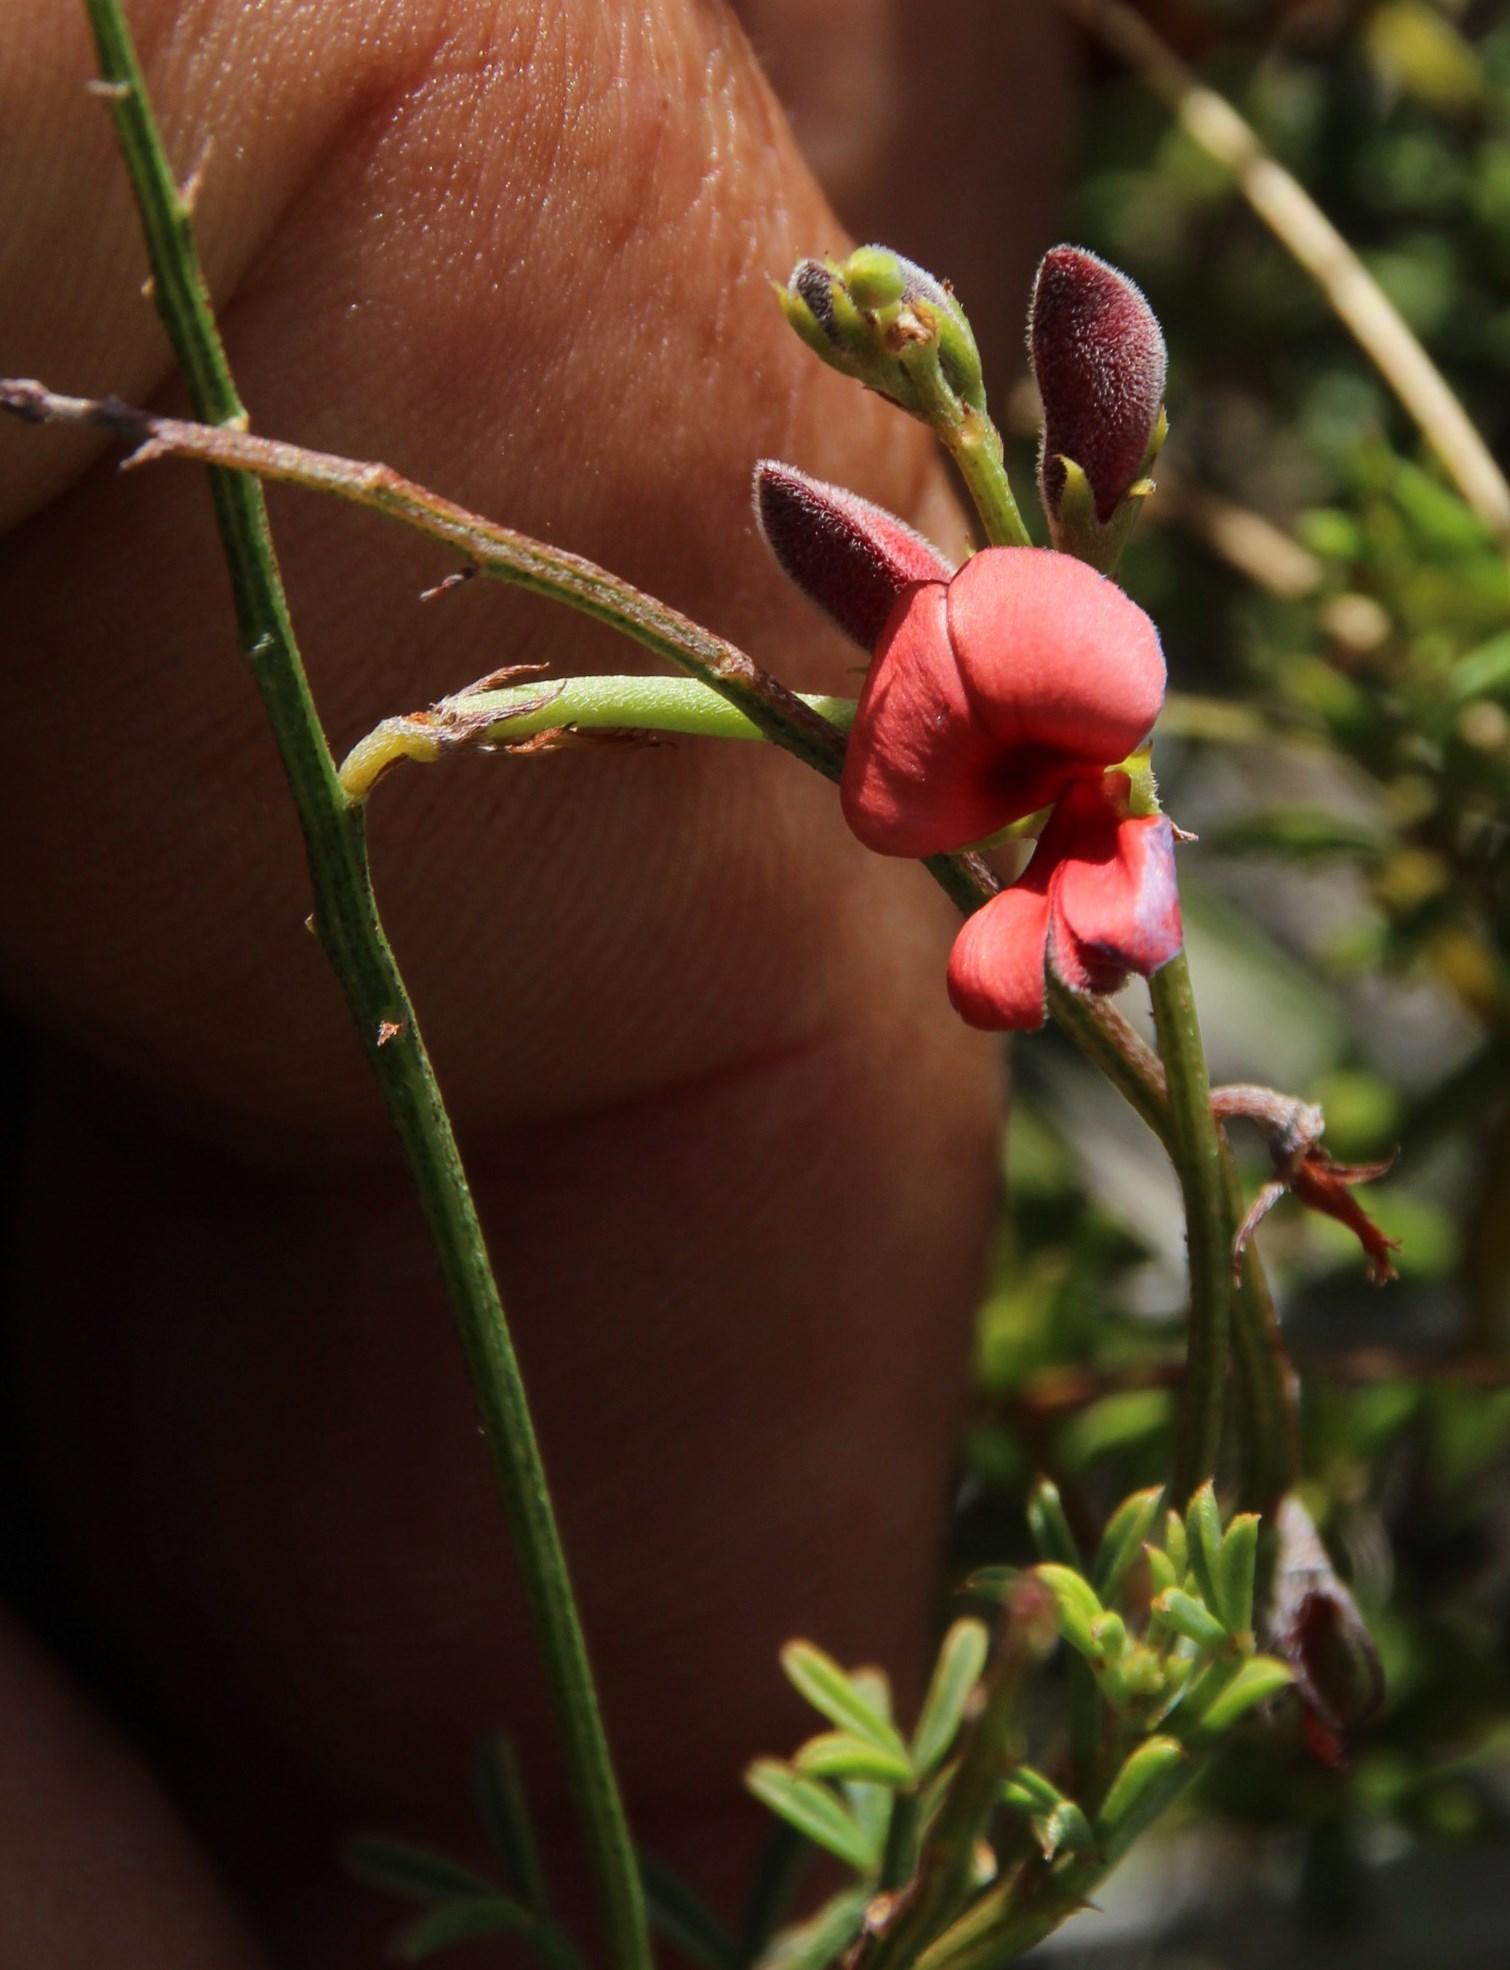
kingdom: Plantae
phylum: Tracheophyta
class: Magnoliopsida
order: Fabales
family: Fabaceae
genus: Indigofera
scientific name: Indigofera heterophylla
